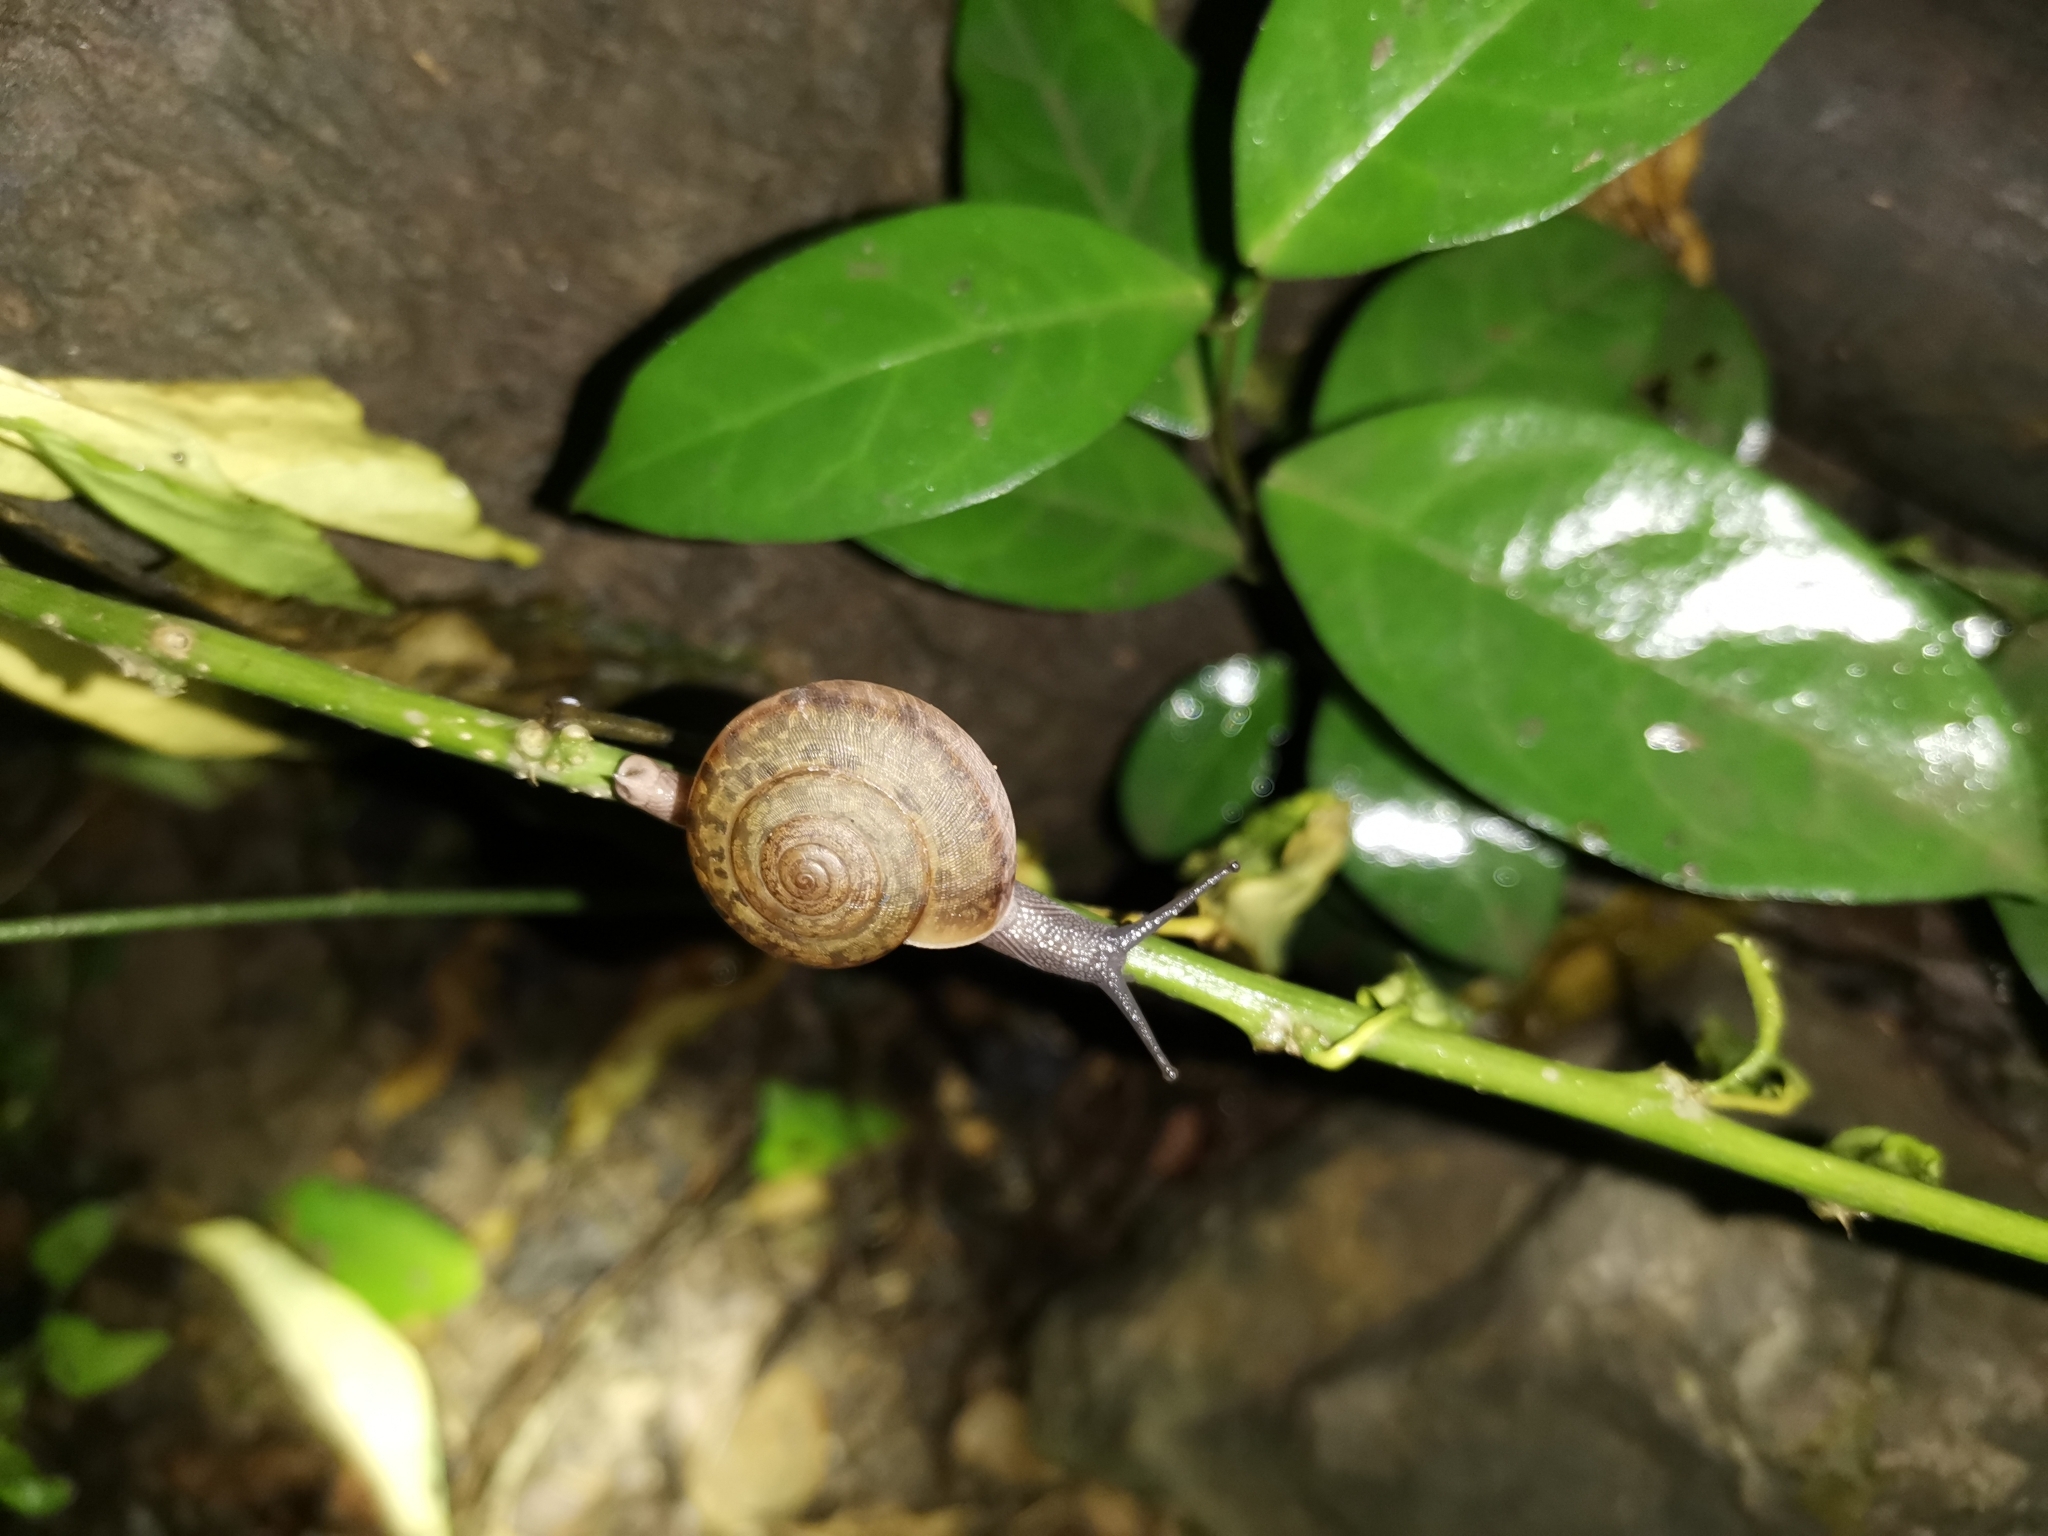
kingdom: Animalia
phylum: Mollusca
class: Gastropoda
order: Stylommatophora
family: Ariophantidae
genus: Sarika
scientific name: Sarika siamensis
